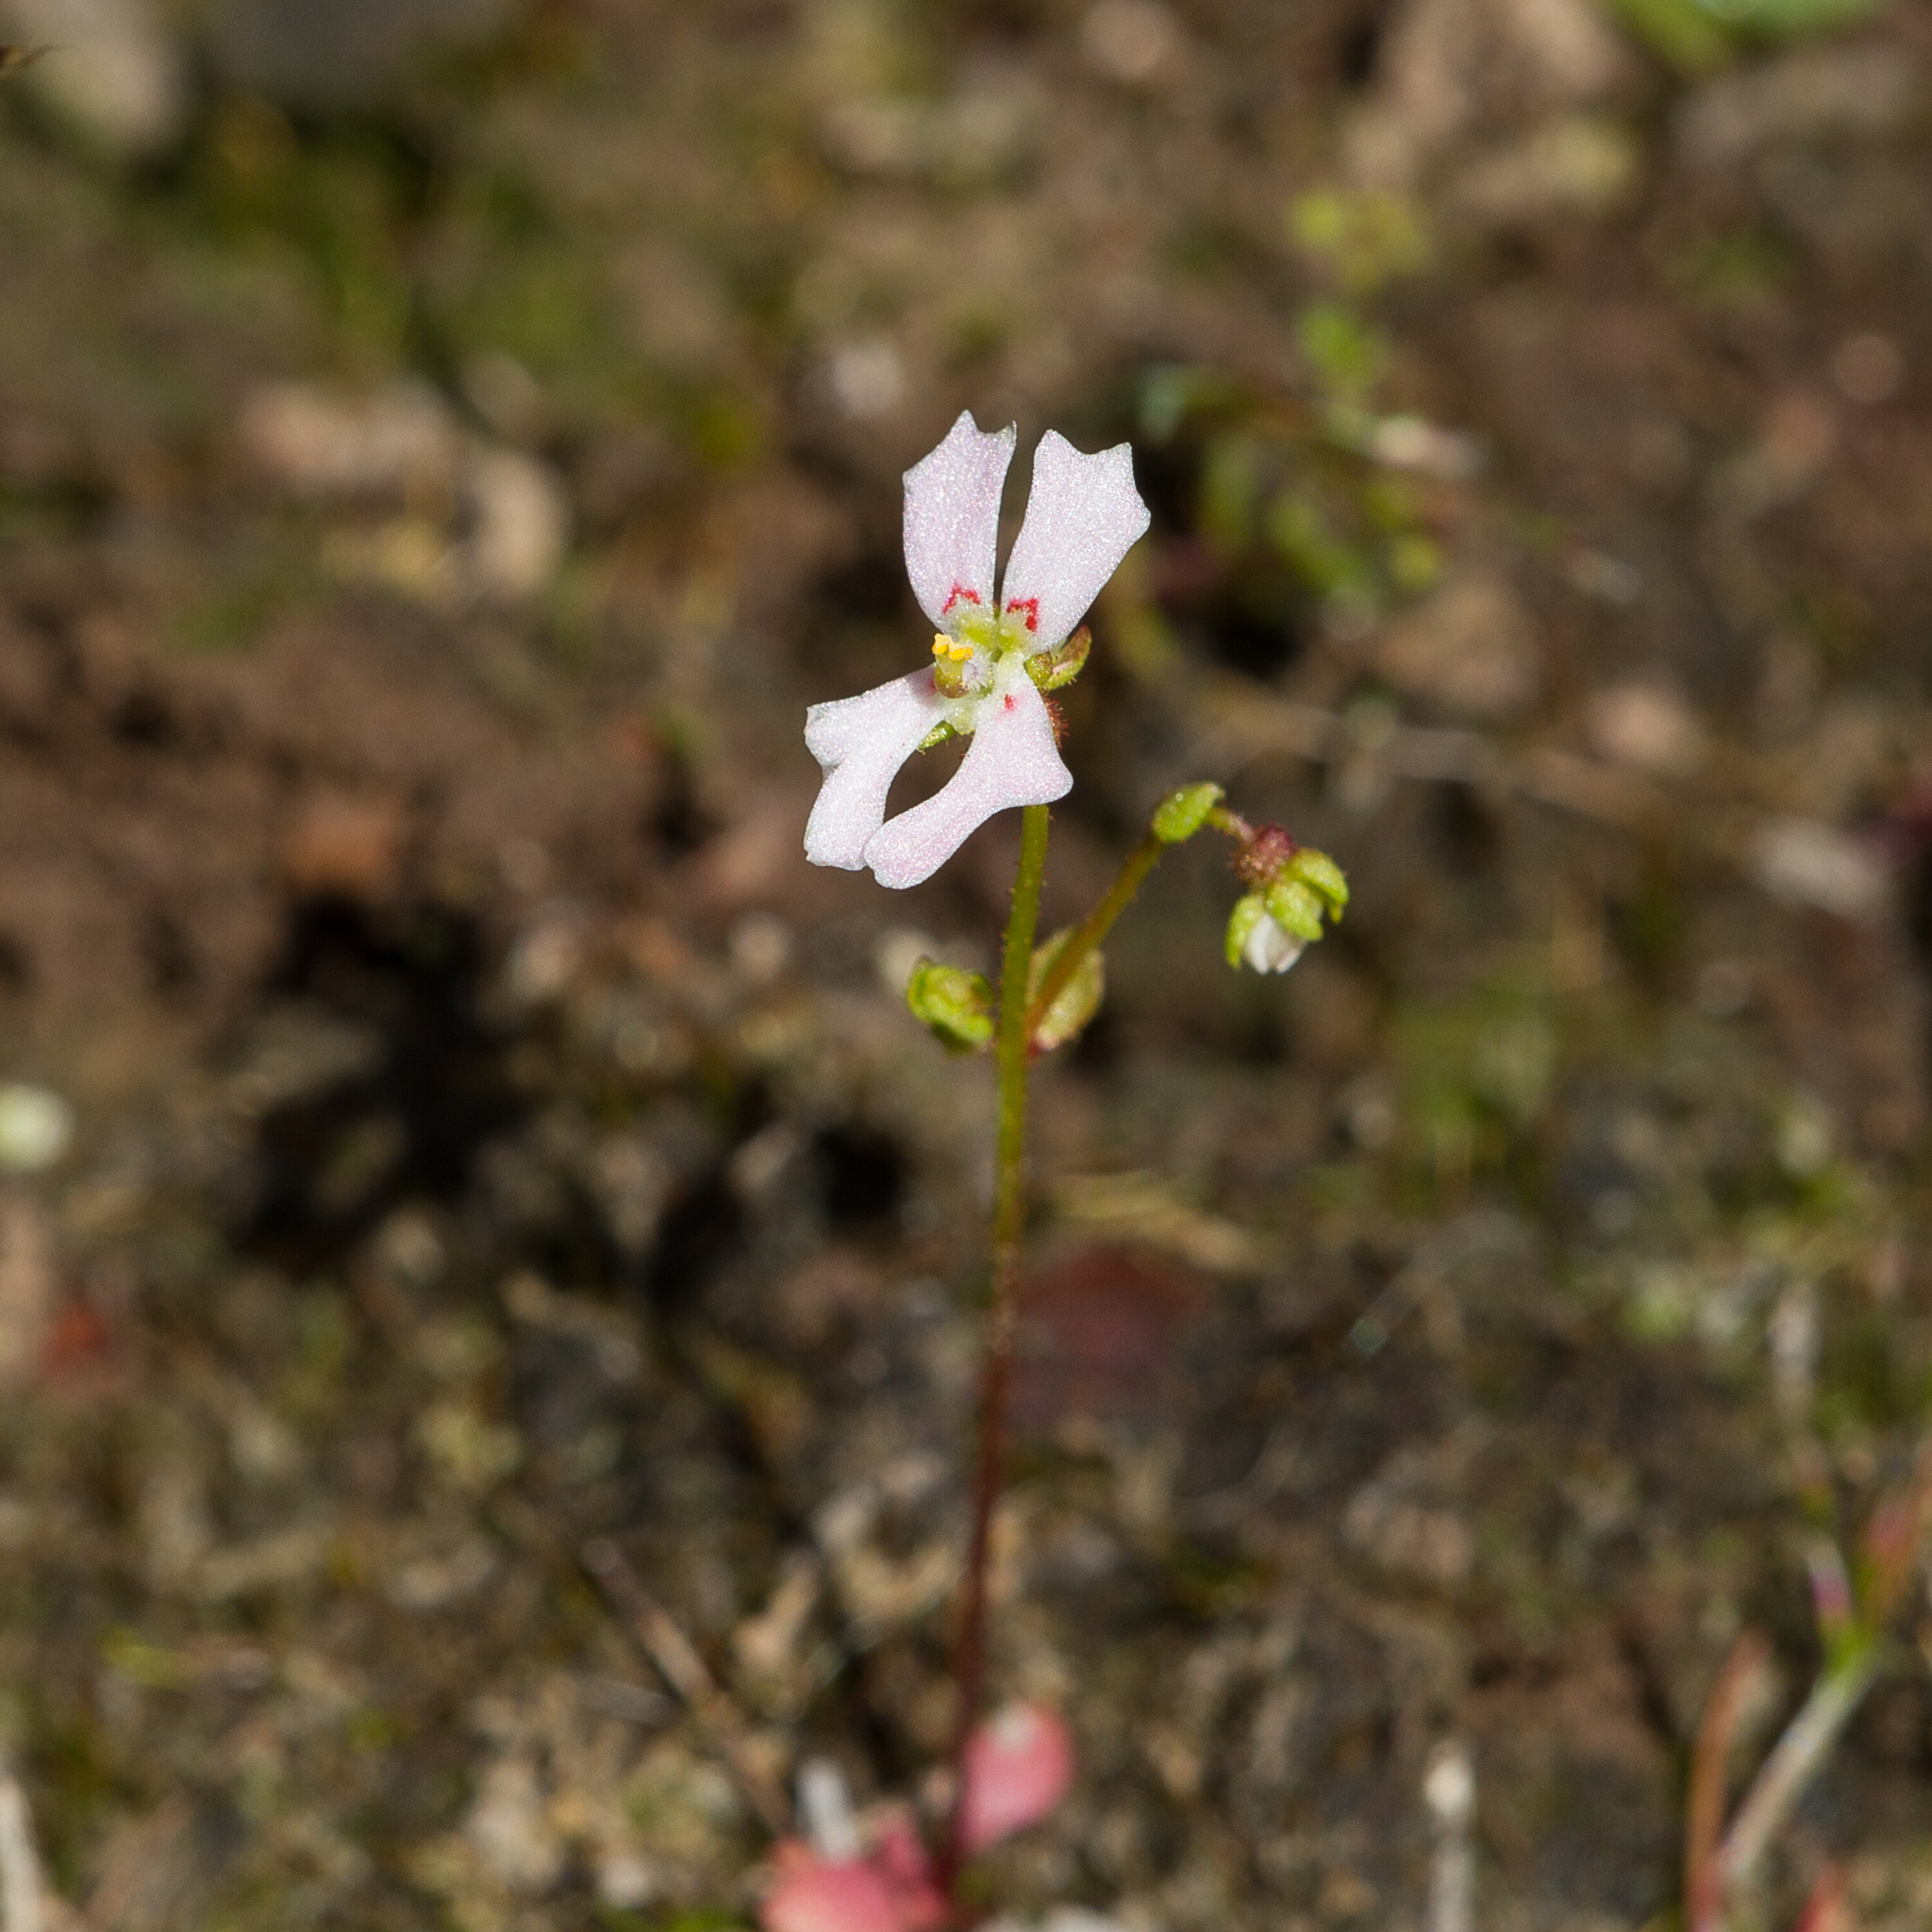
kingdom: Plantae
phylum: Tracheophyta
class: Magnoliopsida
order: Asterales
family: Stylidiaceae
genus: Stylidium
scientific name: Stylidium calcaratum
